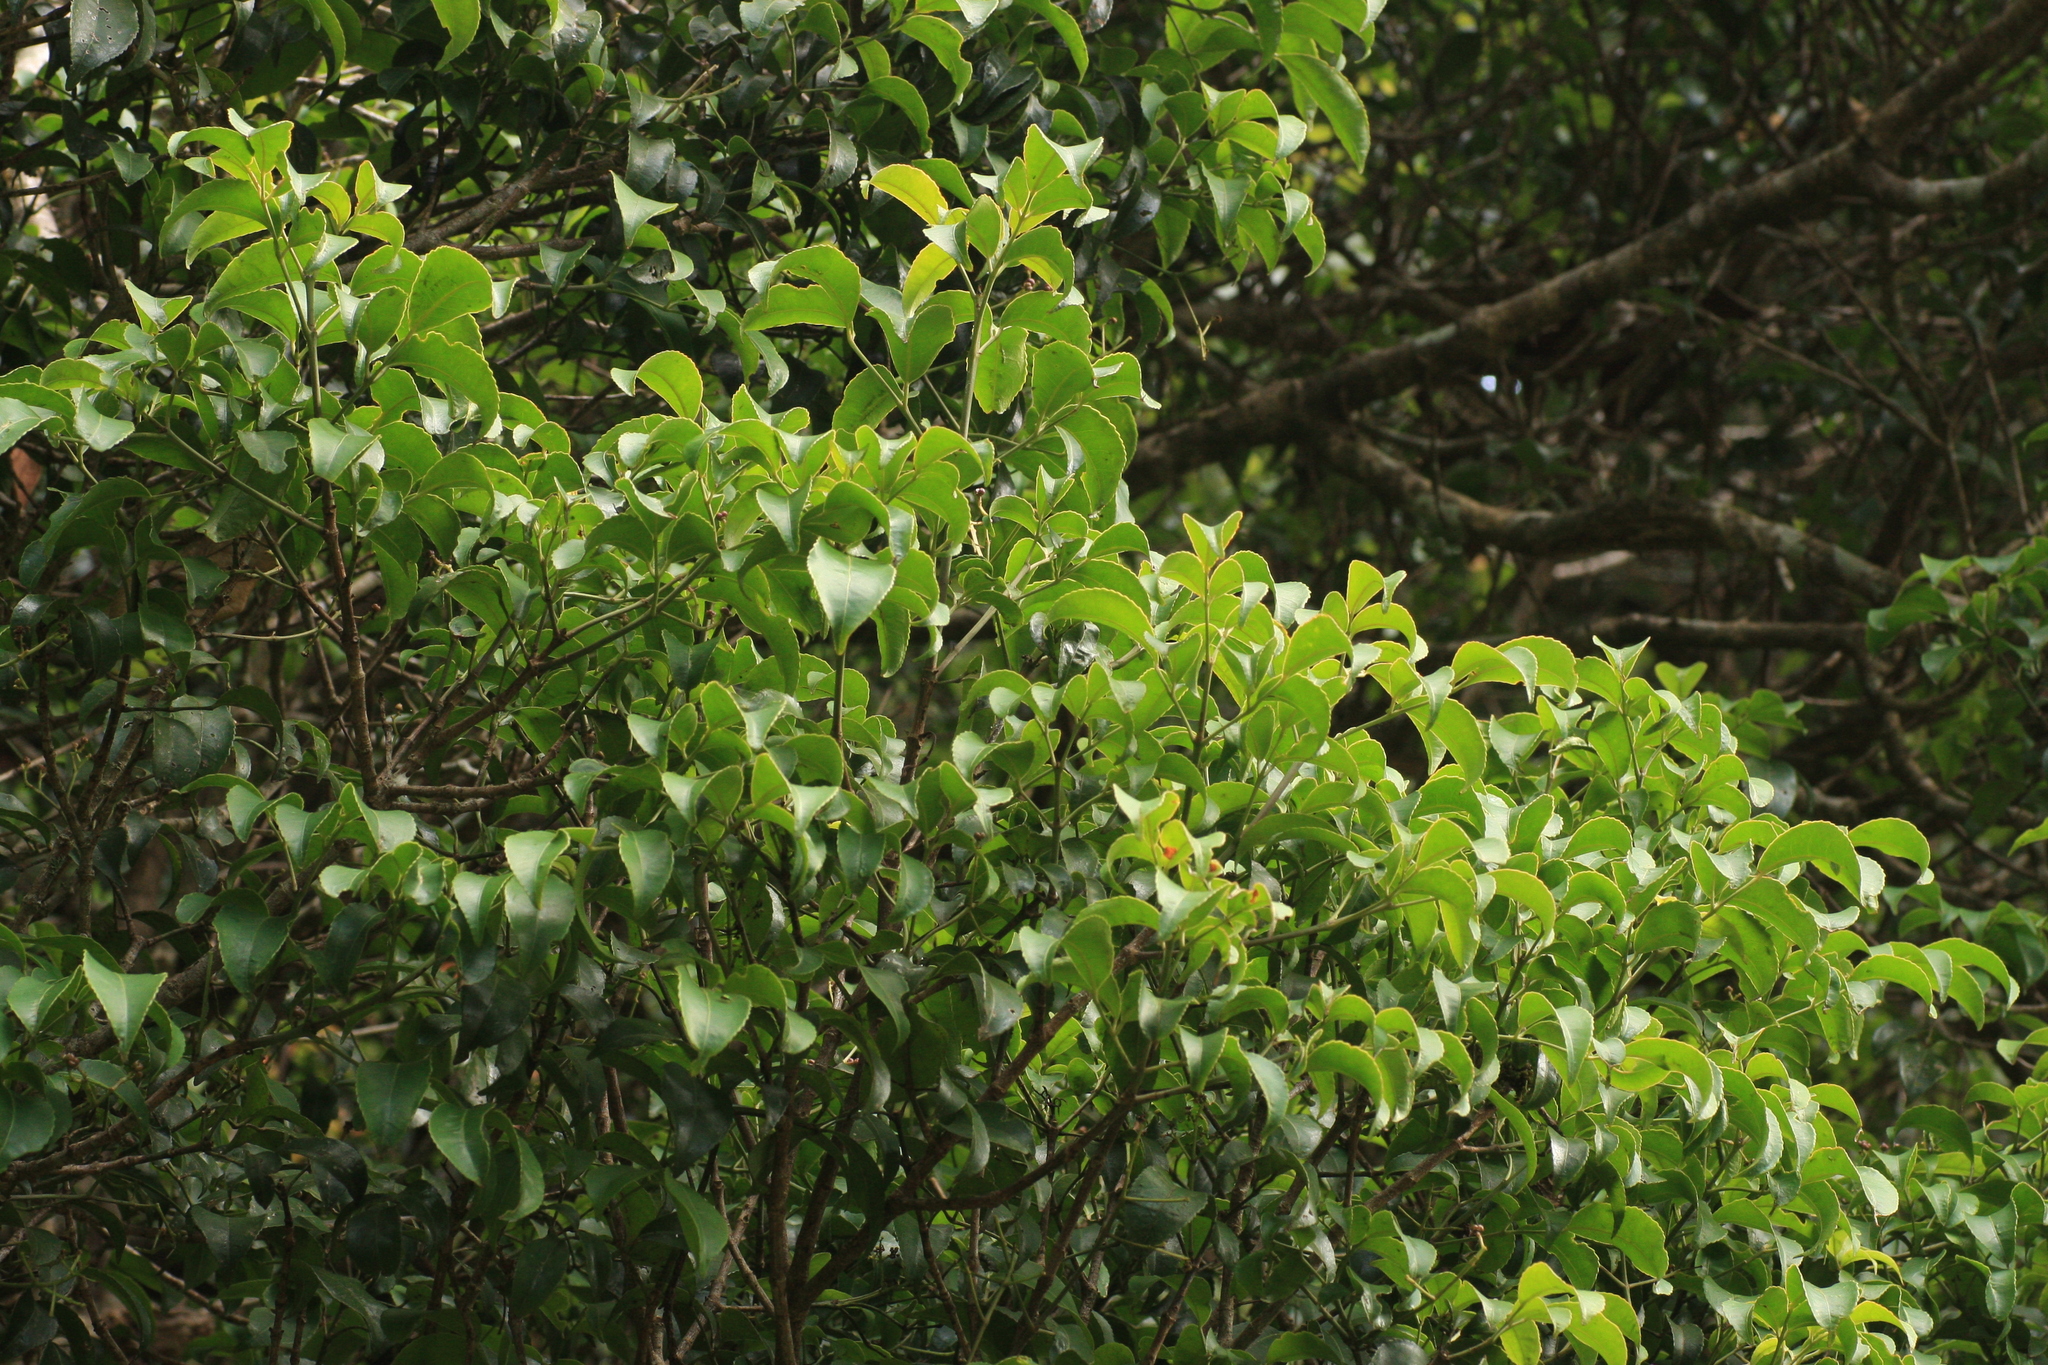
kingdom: Plantae
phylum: Tracheophyta
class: Magnoliopsida
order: Crossosomatales
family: Staphyleaceae
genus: Turpinia
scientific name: Turpinia cochinchinensis
